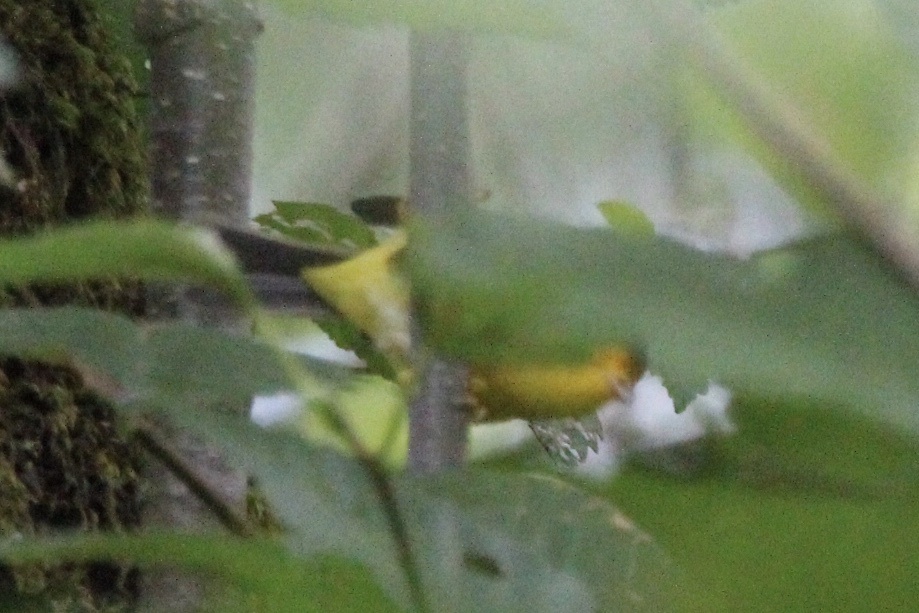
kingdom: Animalia
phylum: Chordata
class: Aves
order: Passeriformes
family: Parulidae
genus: Cardellina
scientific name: Cardellina pusilla
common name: Wilson's warbler
